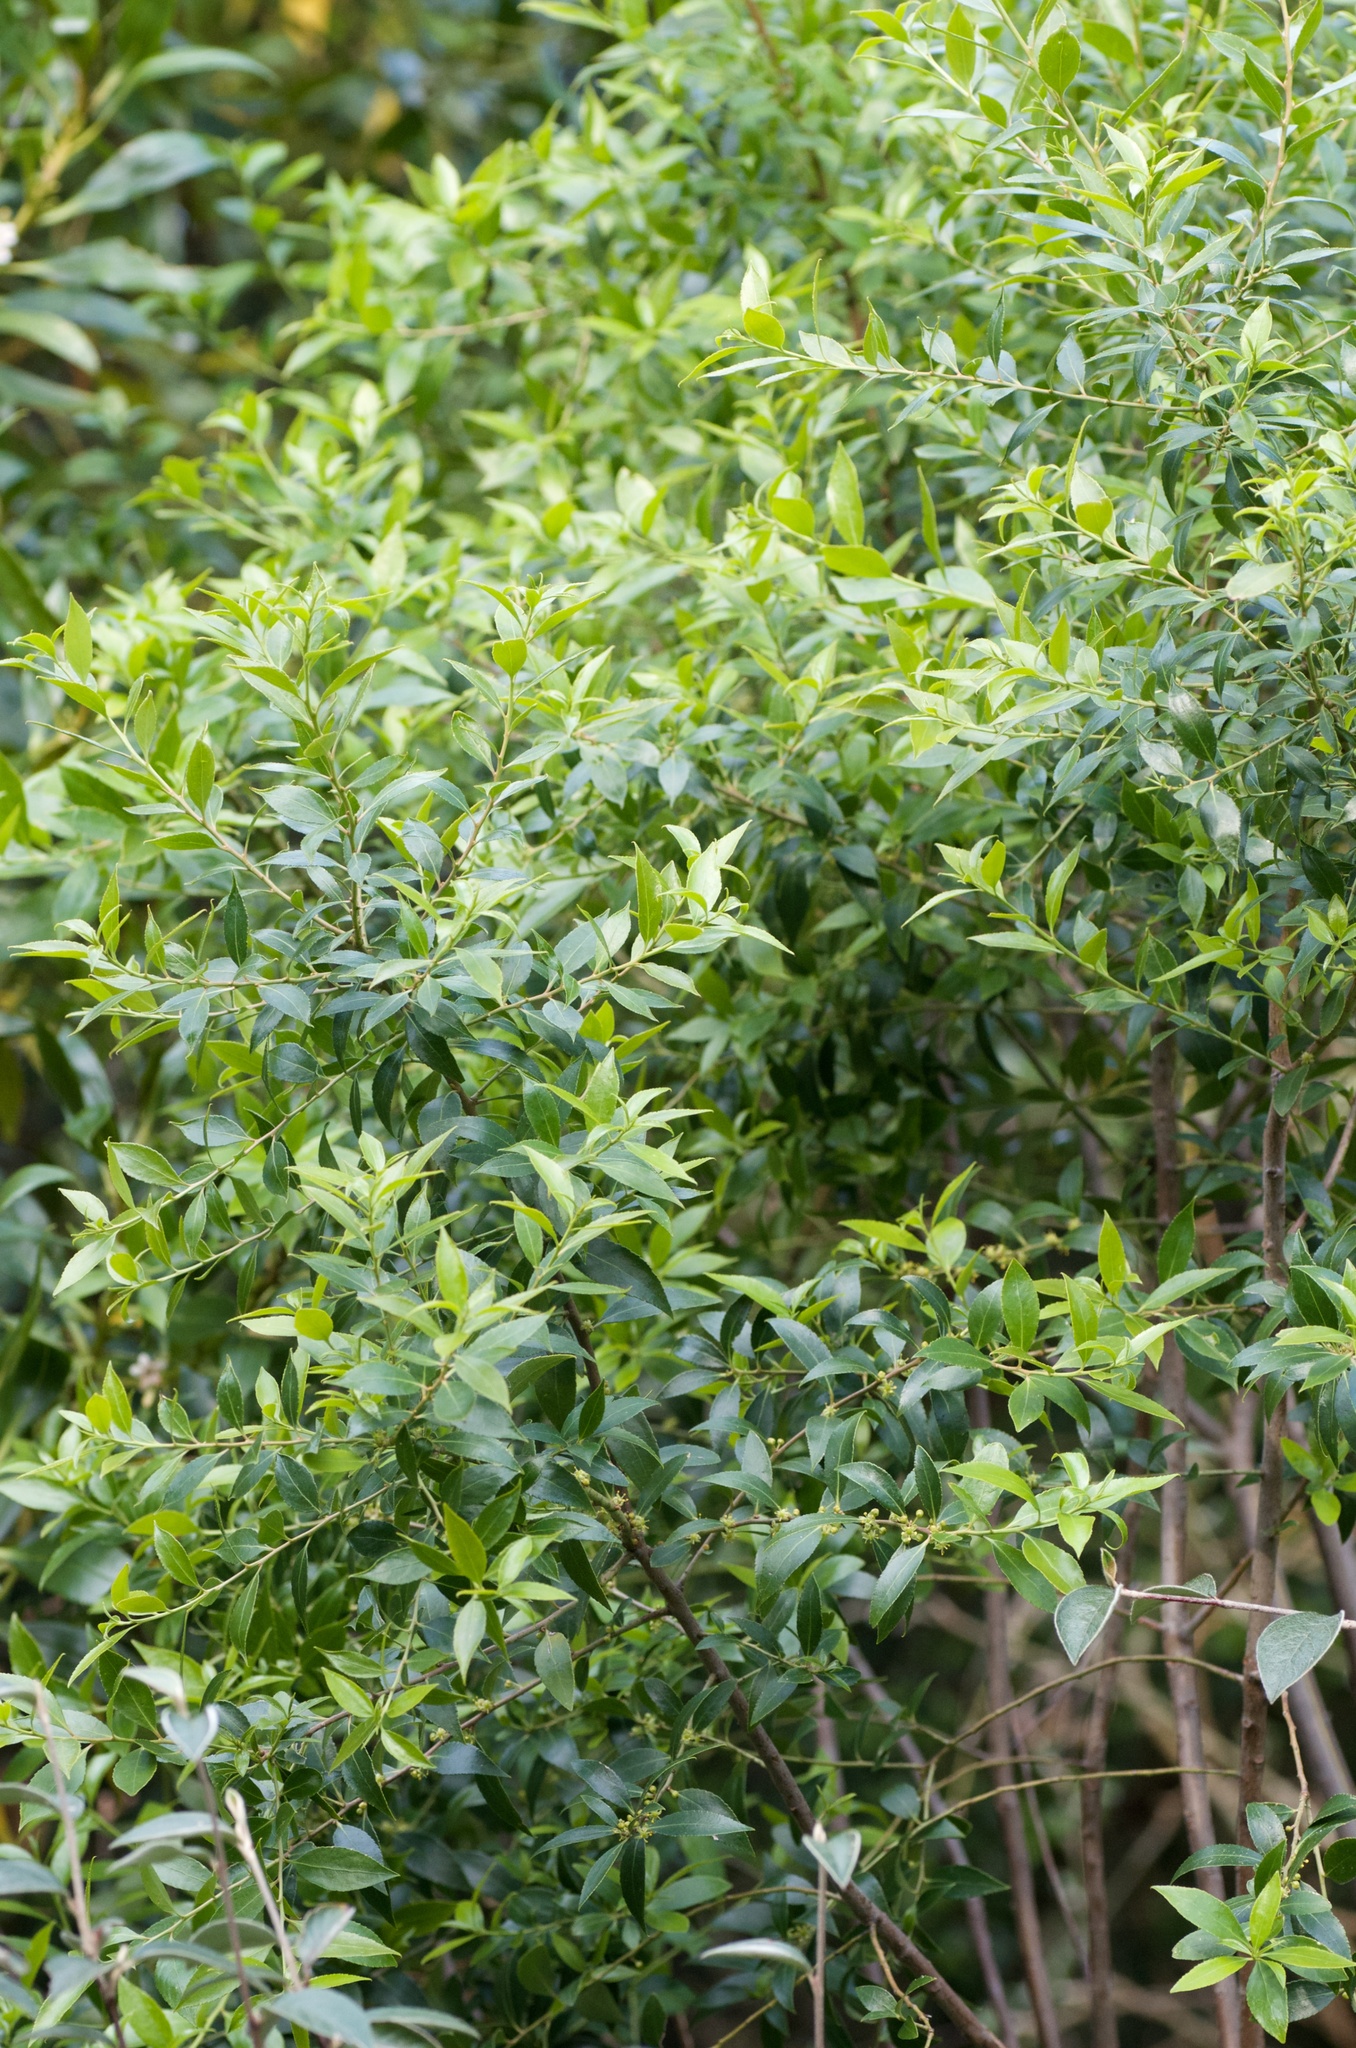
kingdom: Plantae
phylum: Tracheophyta
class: Magnoliopsida
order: Celastrales
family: Celastraceae
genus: Maytenus
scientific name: Maytenus boaria
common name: Mayten
